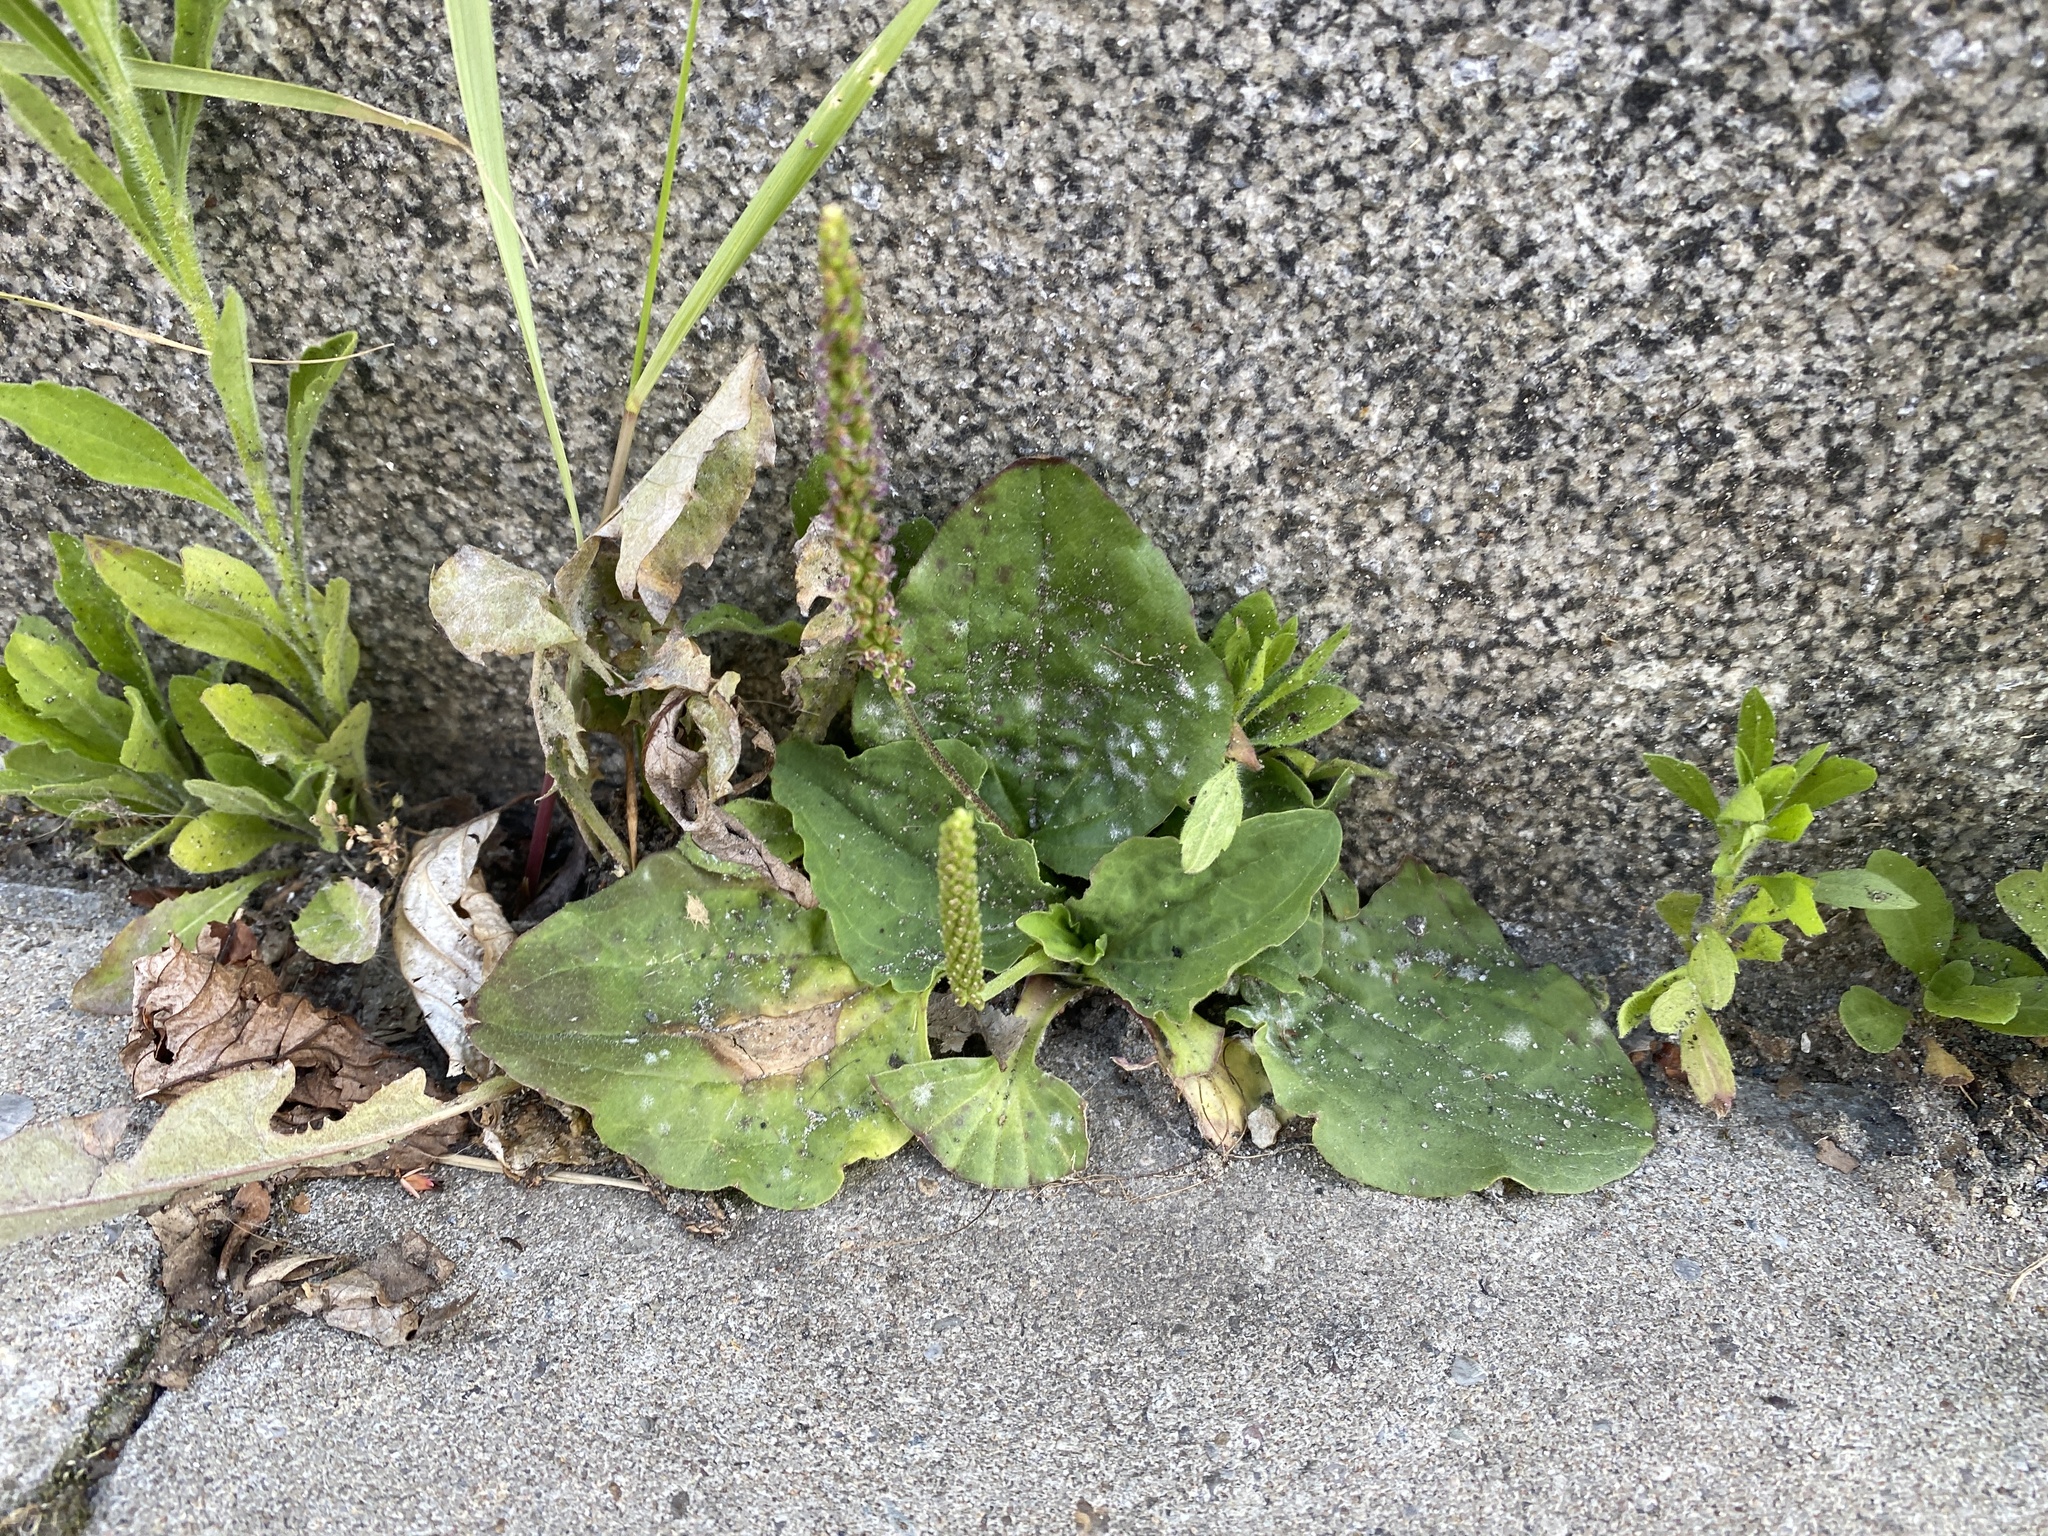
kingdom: Plantae
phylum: Tracheophyta
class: Magnoliopsida
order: Lamiales
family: Plantaginaceae
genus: Plantago
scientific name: Plantago major
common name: Common plantain
